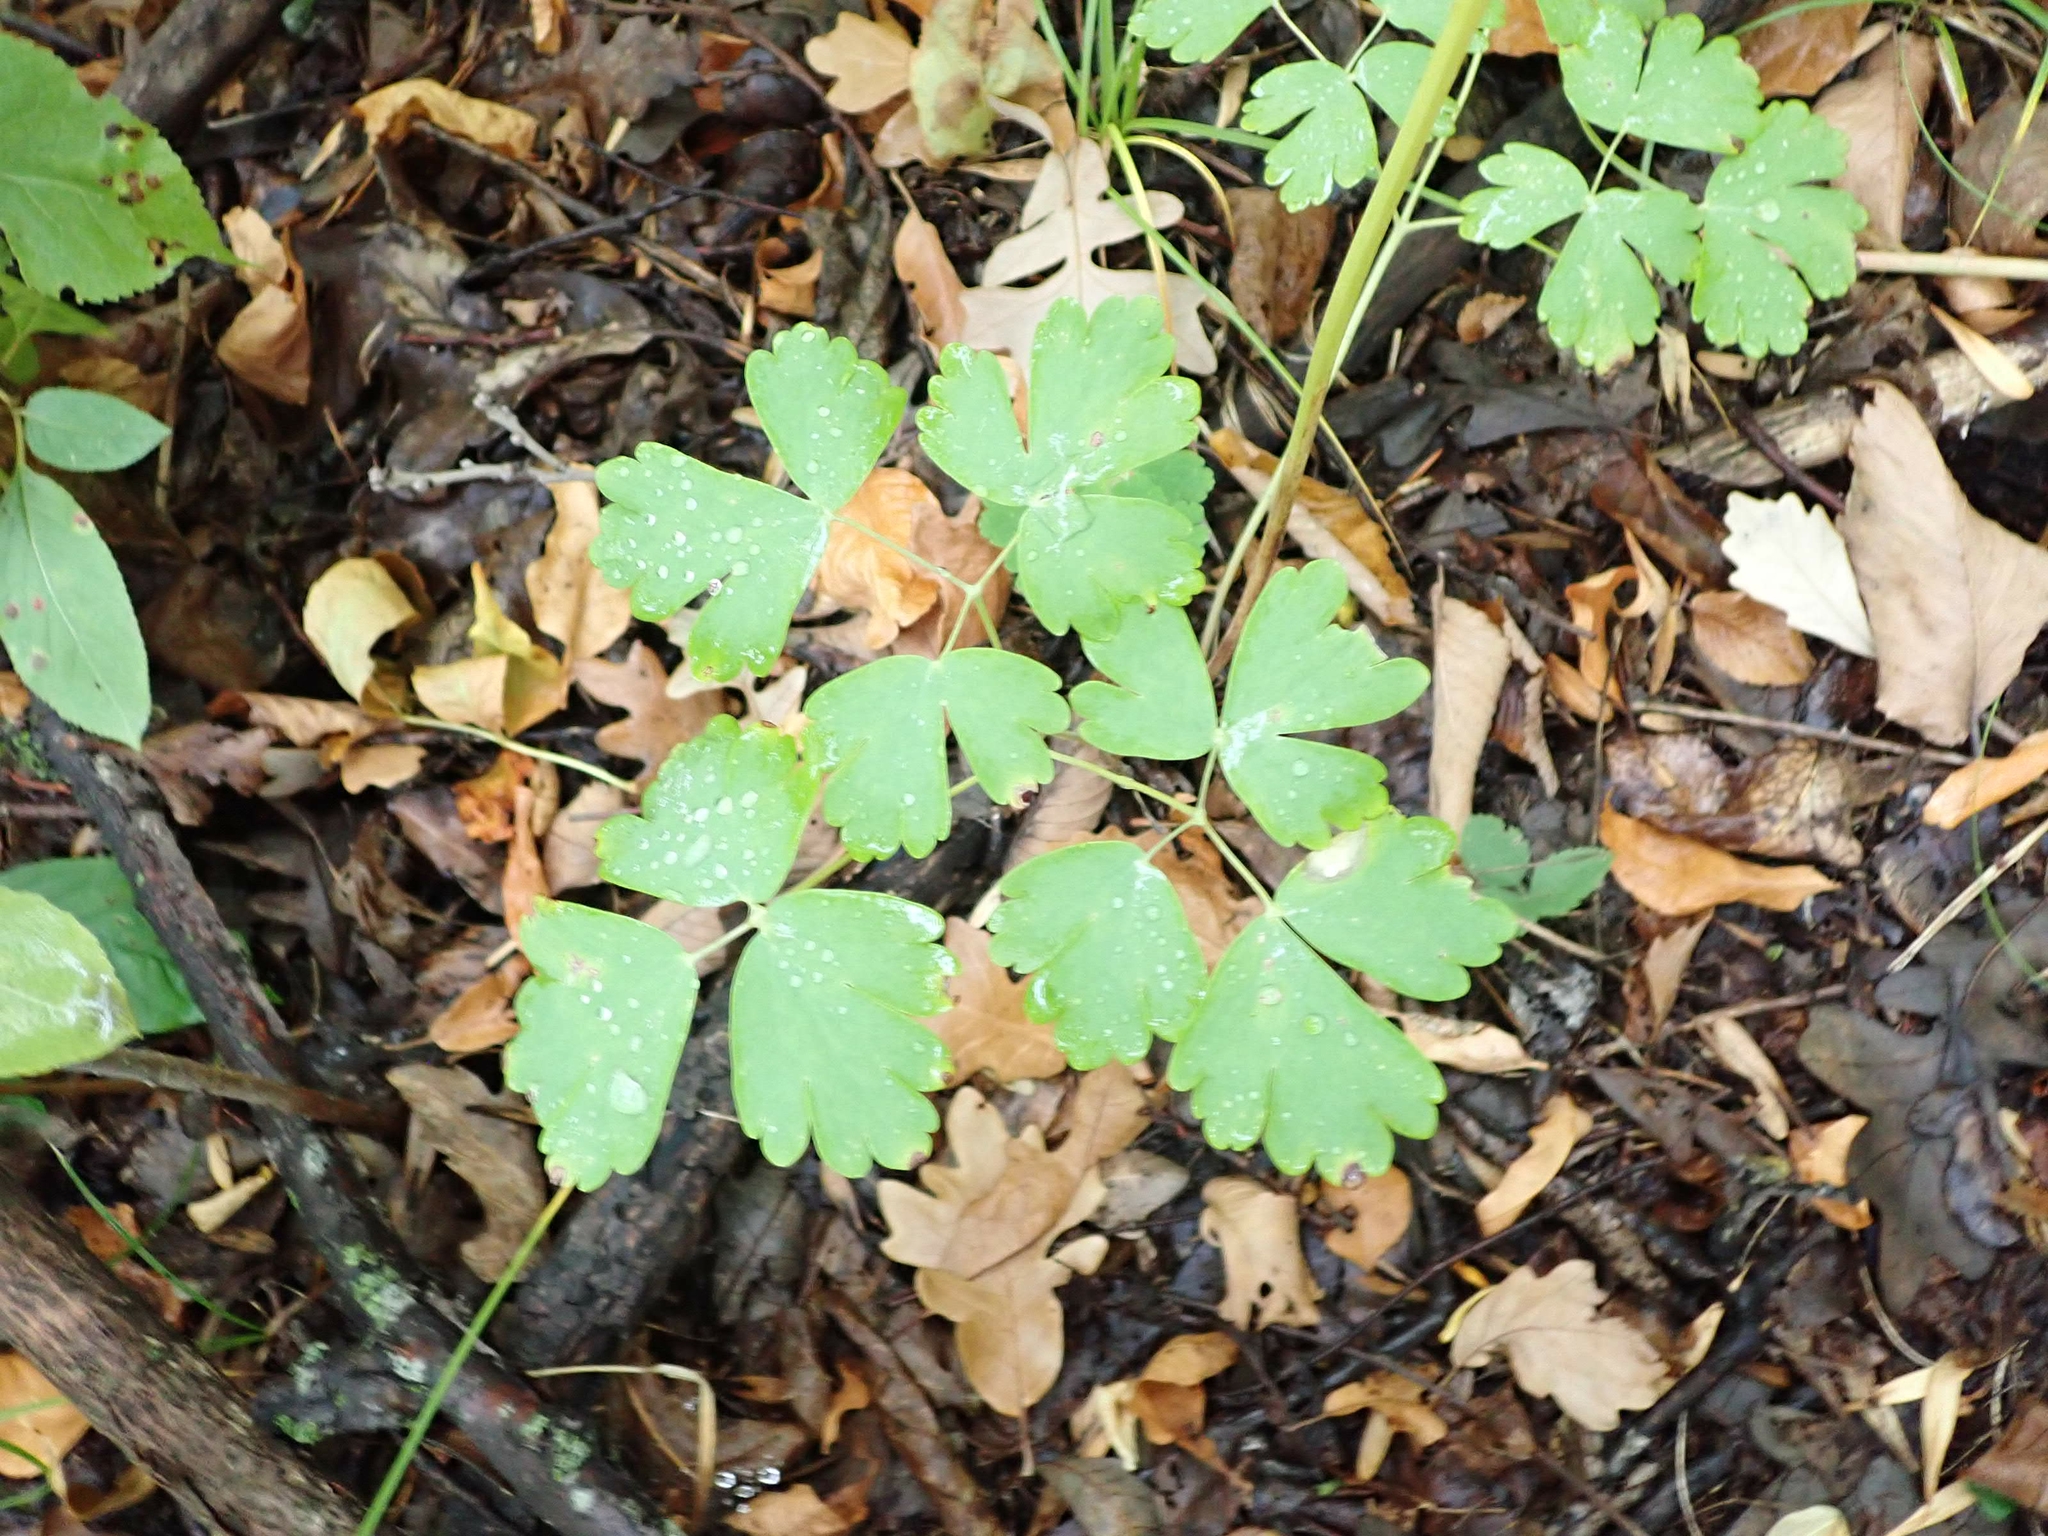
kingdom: Plantae
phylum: Tracheophyta
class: Magnoliopsida
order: Ranunculales
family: Ranunculaceae
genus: Aquilegia
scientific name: Aquilegia canadensis
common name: American columbine
